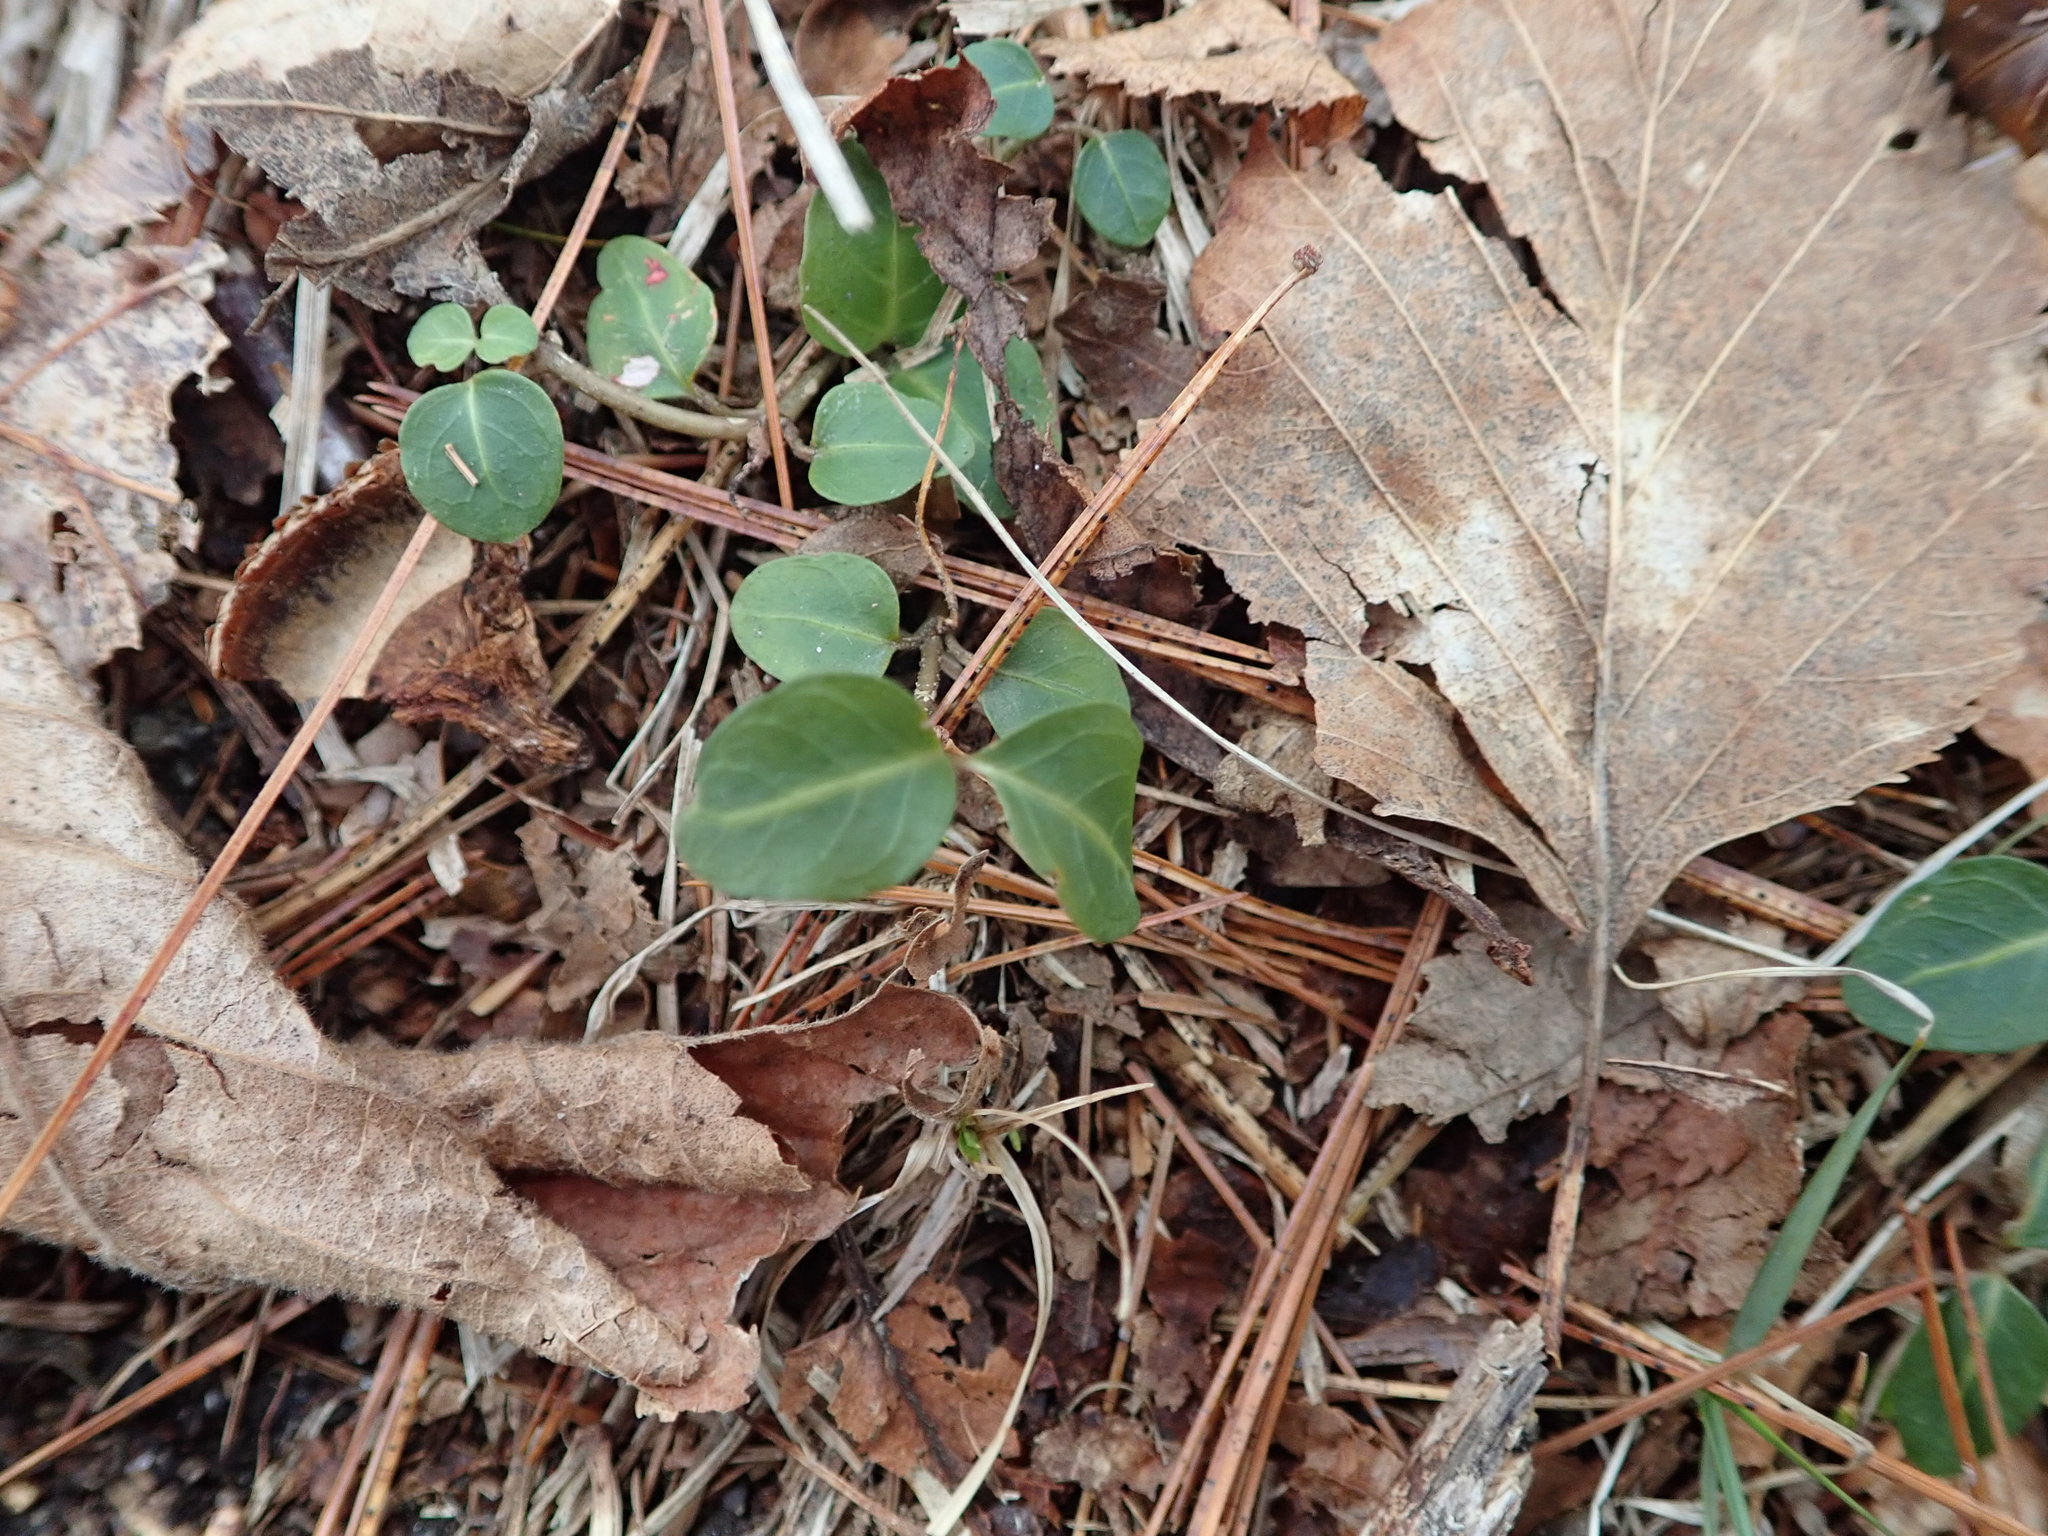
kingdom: Plantae
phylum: Tracheophyta
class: Magnoliopsida
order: Gentianales
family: Rubiaceae
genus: Mitchella
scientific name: Mitchella repens
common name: Partridge-berry
